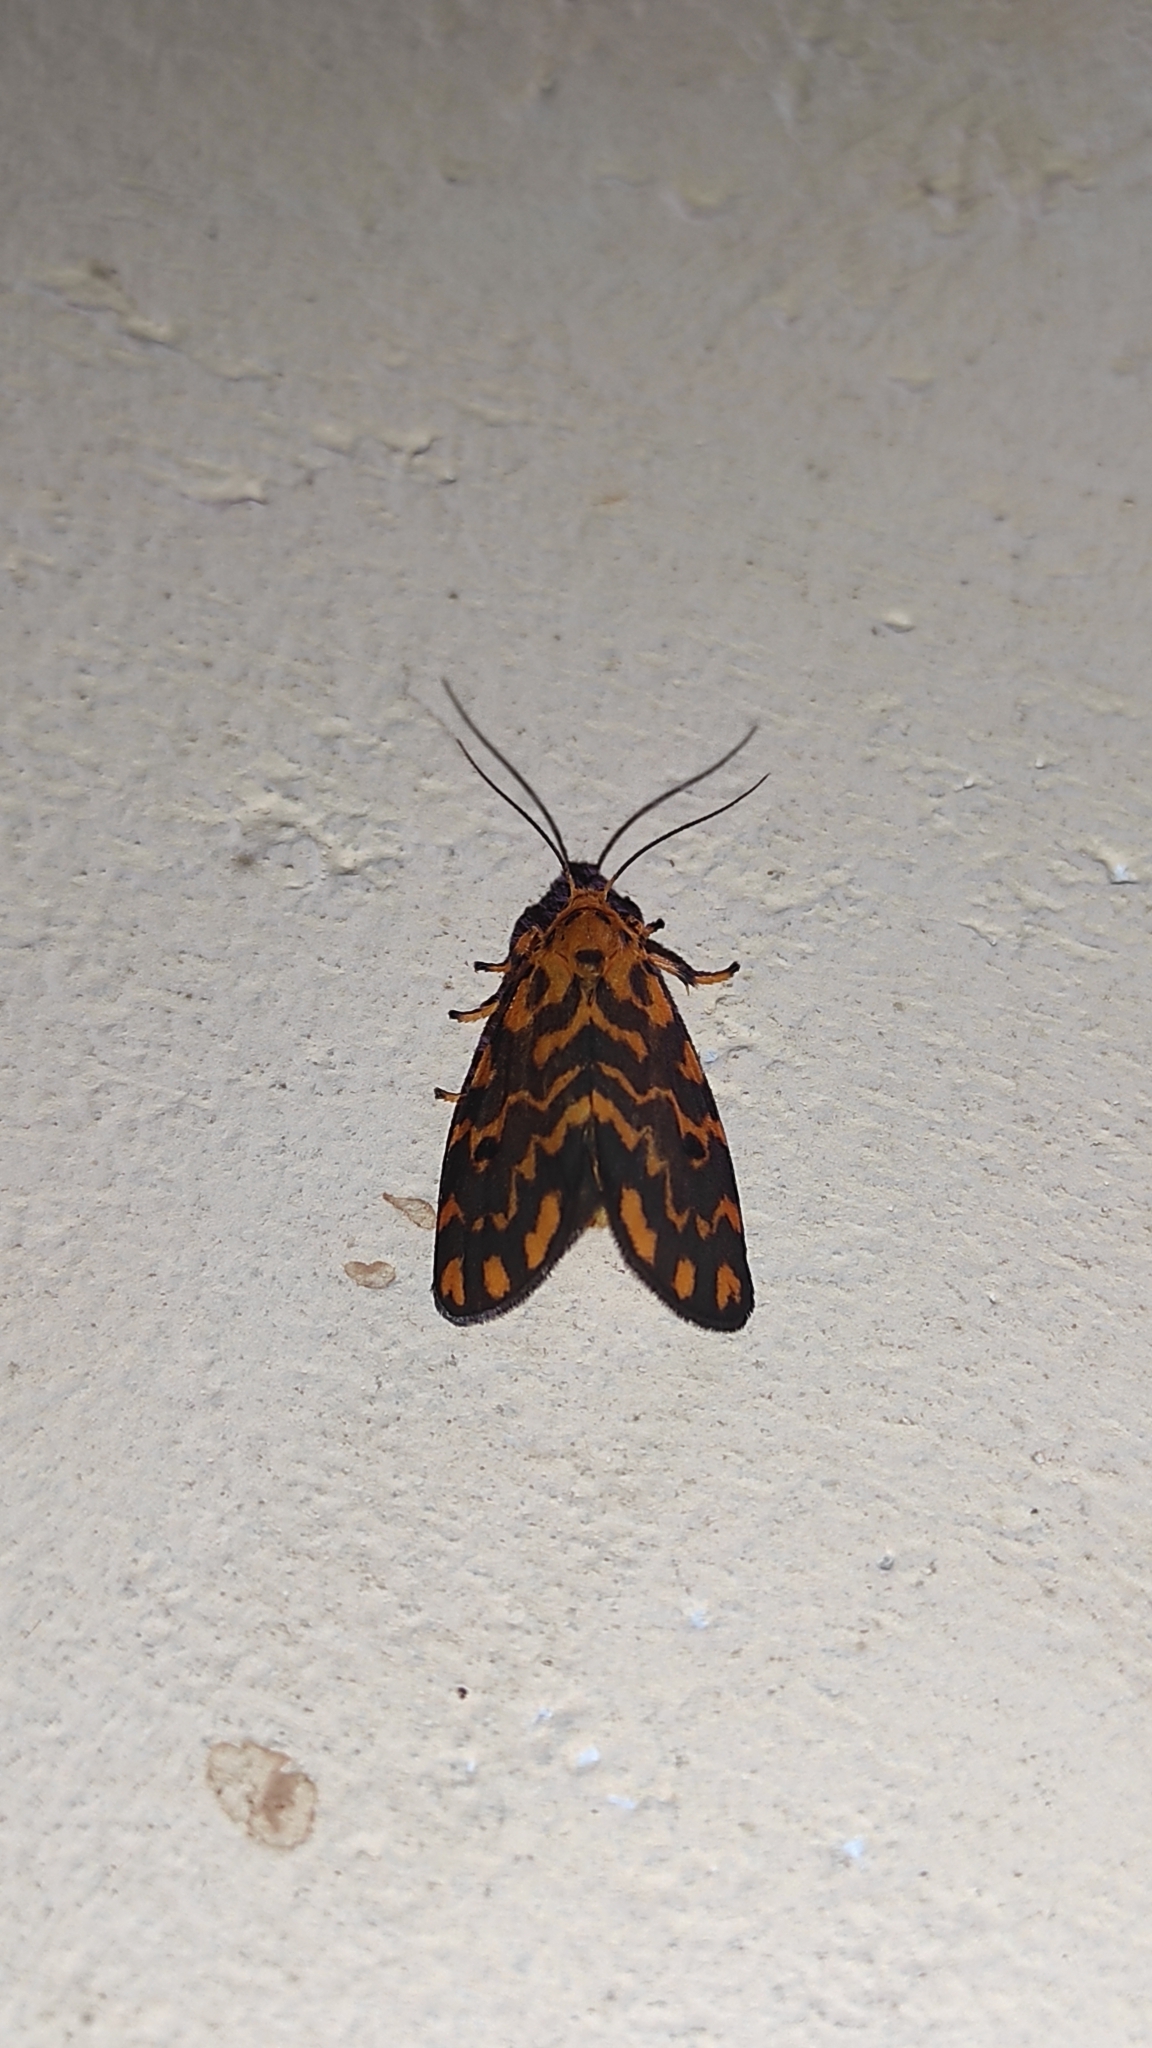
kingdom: Animalia
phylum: Arthropoda
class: Insecta
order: Lepidoptera
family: Erebidae
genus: Nepita
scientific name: Nepita conferta
